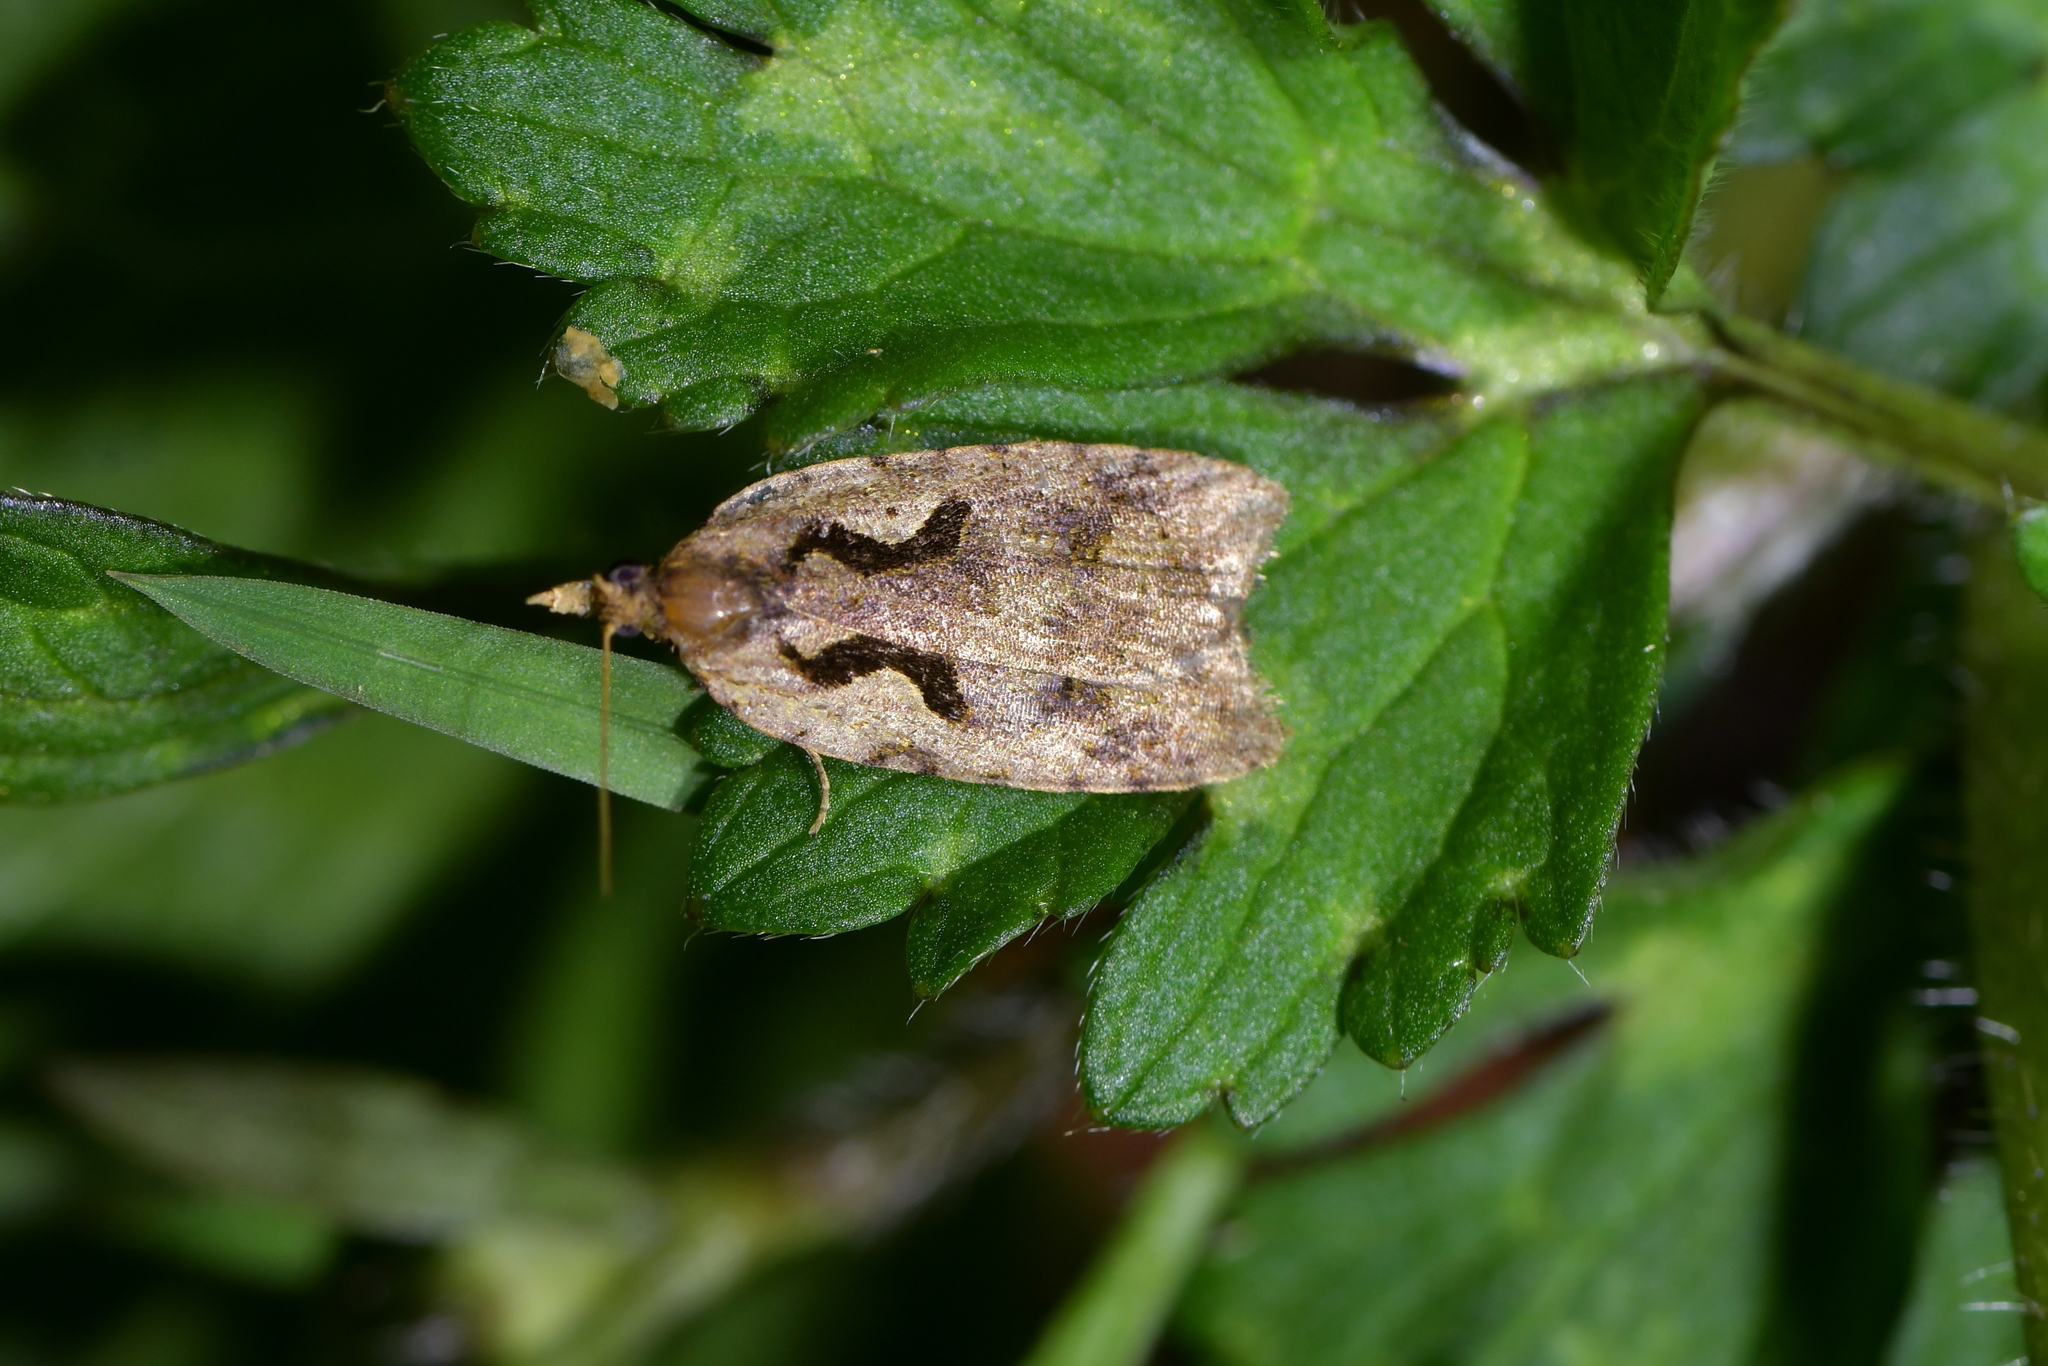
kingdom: Animalia
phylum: Arthropoda
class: Insecta
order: Lepidoptera
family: Tortricidae
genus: Cnephasia
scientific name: Cnephasia jactatana
